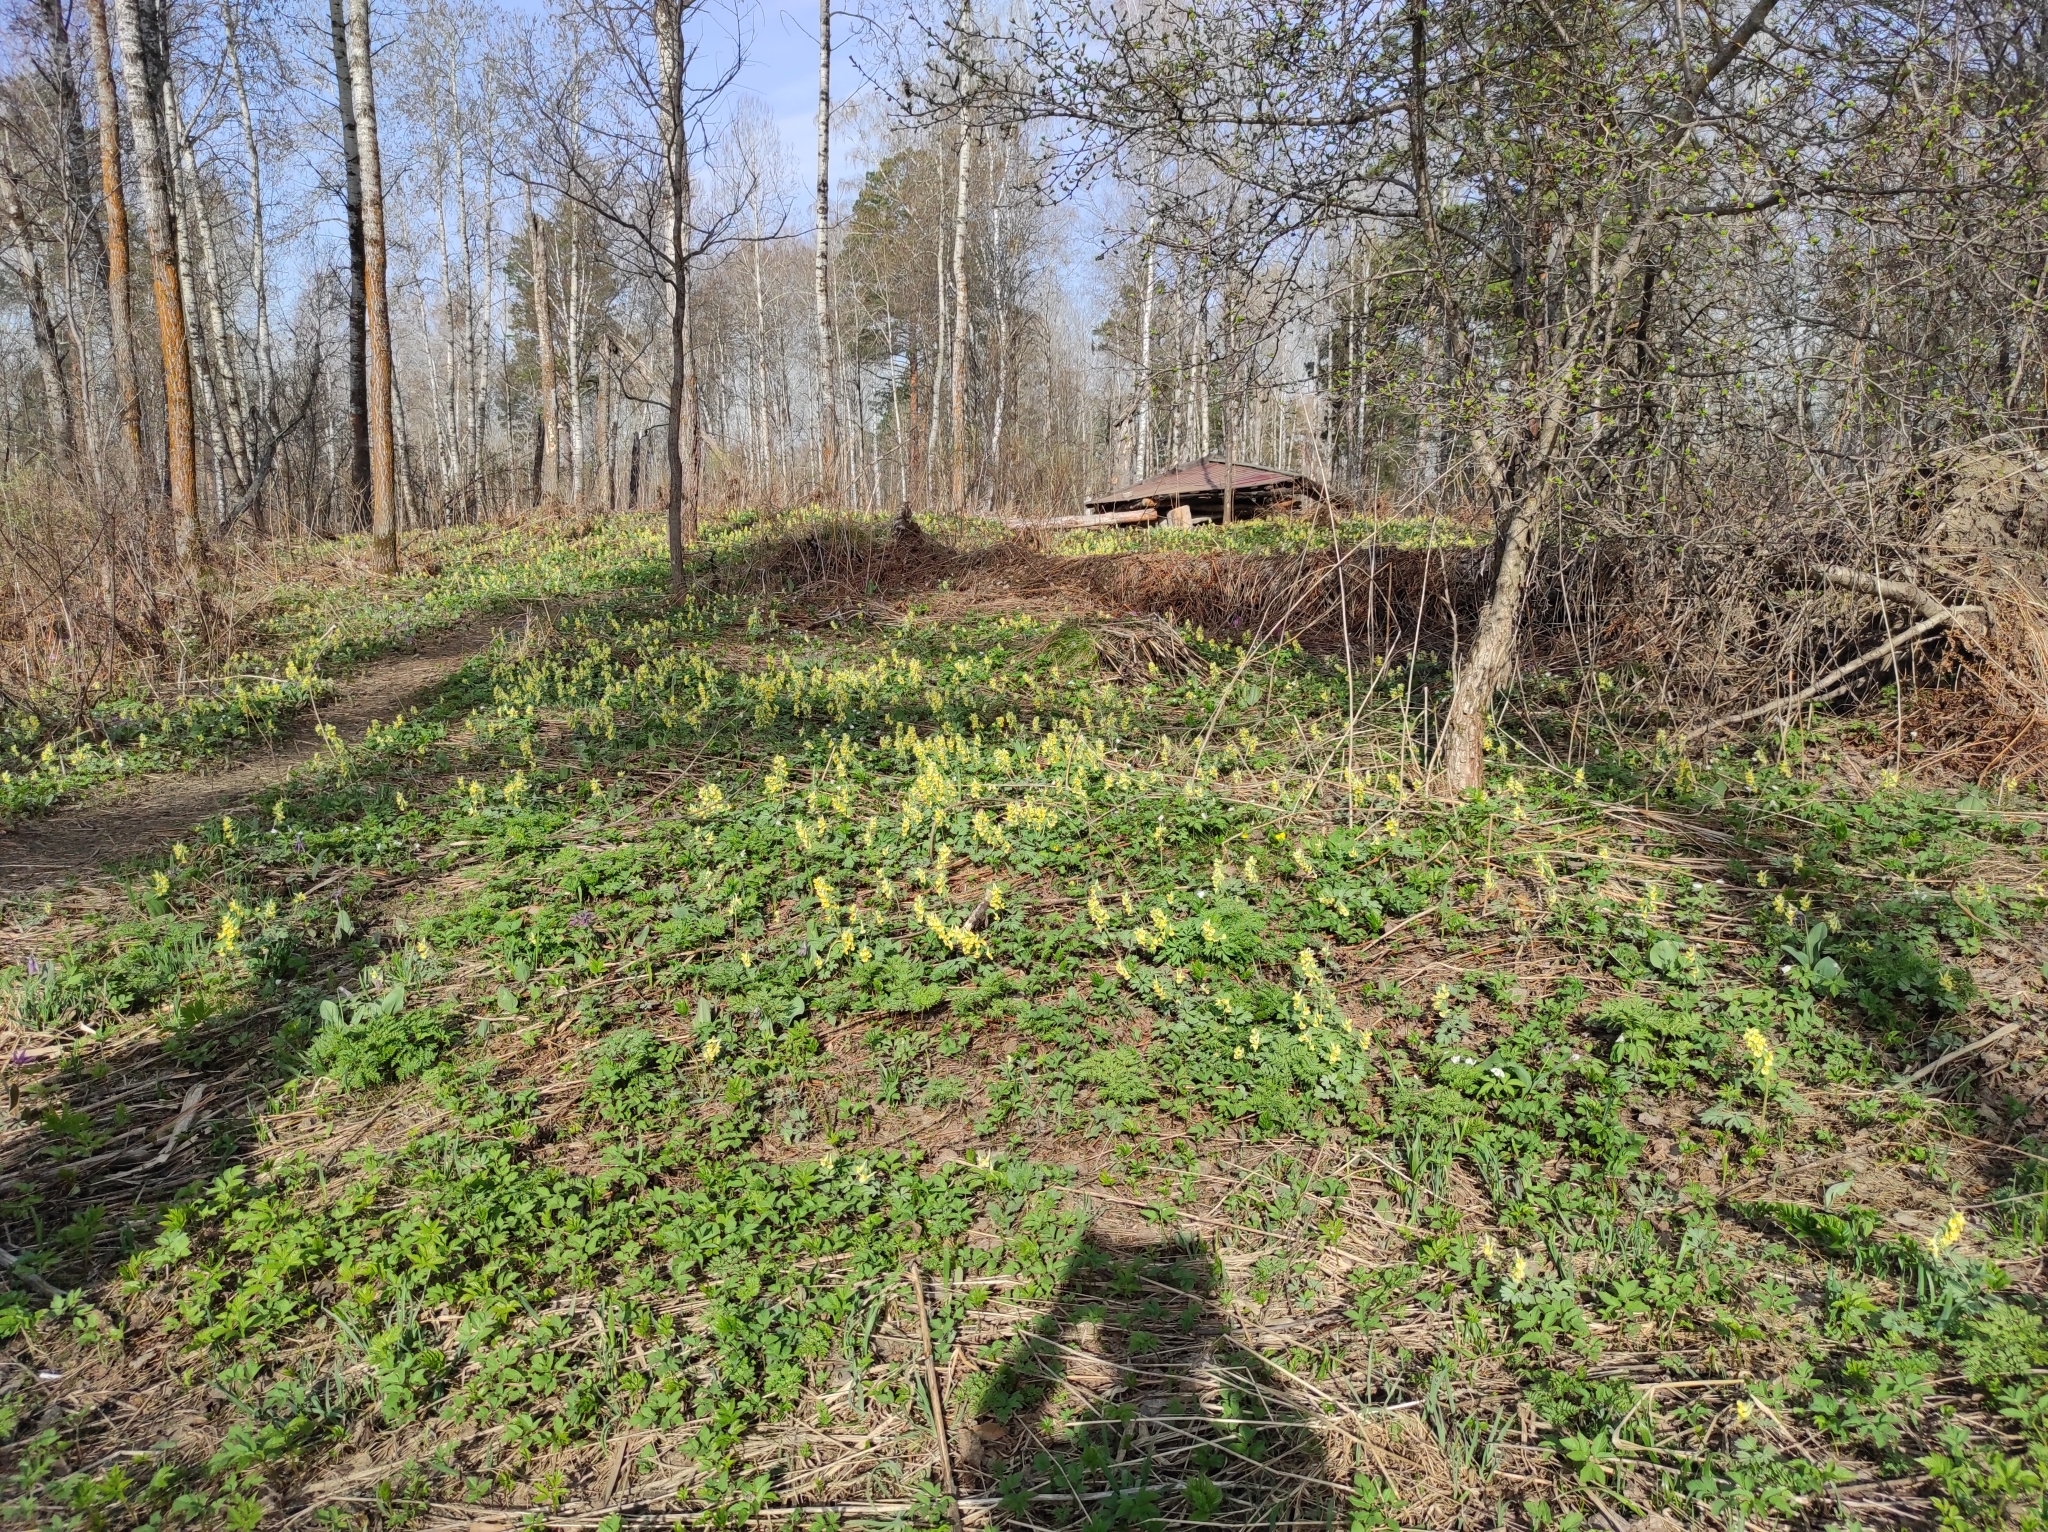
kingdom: Plantae
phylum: Tracheophyta
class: Magnoliopsida
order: Ranunculales
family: Papaveraceae
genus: Corydalis
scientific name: Corydalis bracteata
